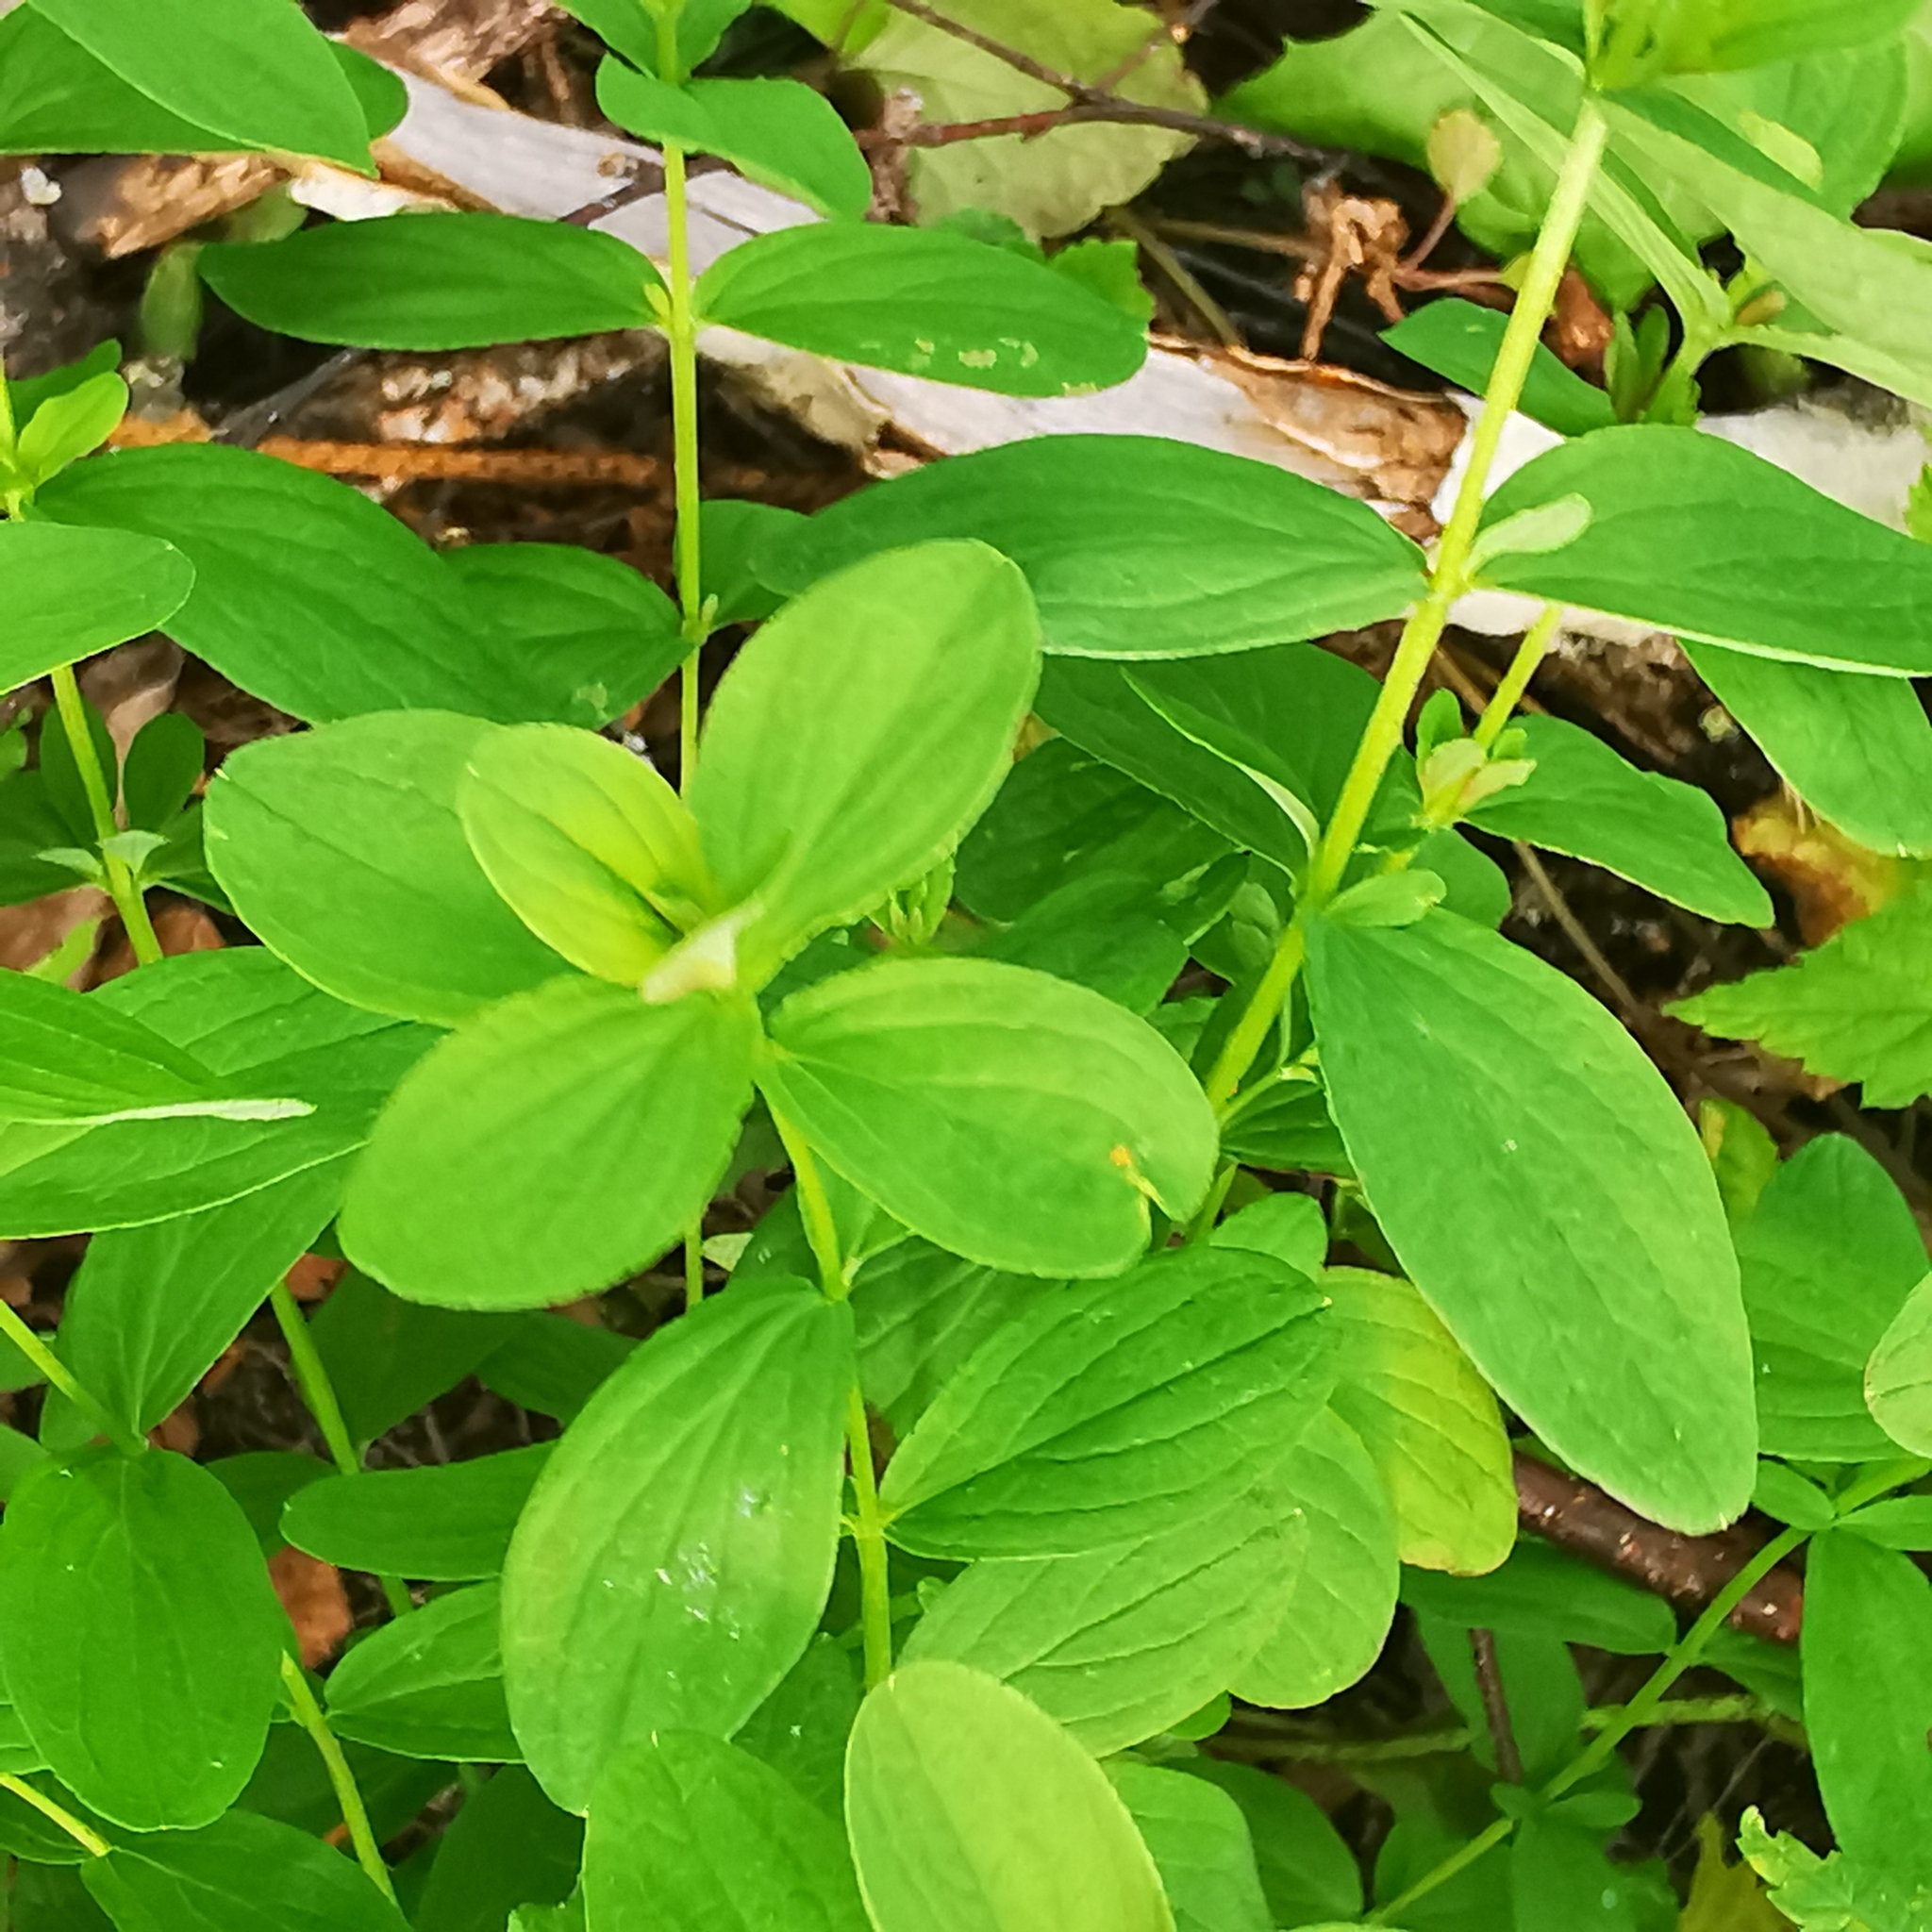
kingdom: Plantae
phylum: Tracheophyta
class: Magnoliopsida
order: Malpighiales
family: Hypericaceae
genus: Hypericum
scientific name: Hypericum maculatum
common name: Imperforate st. john's-wort
